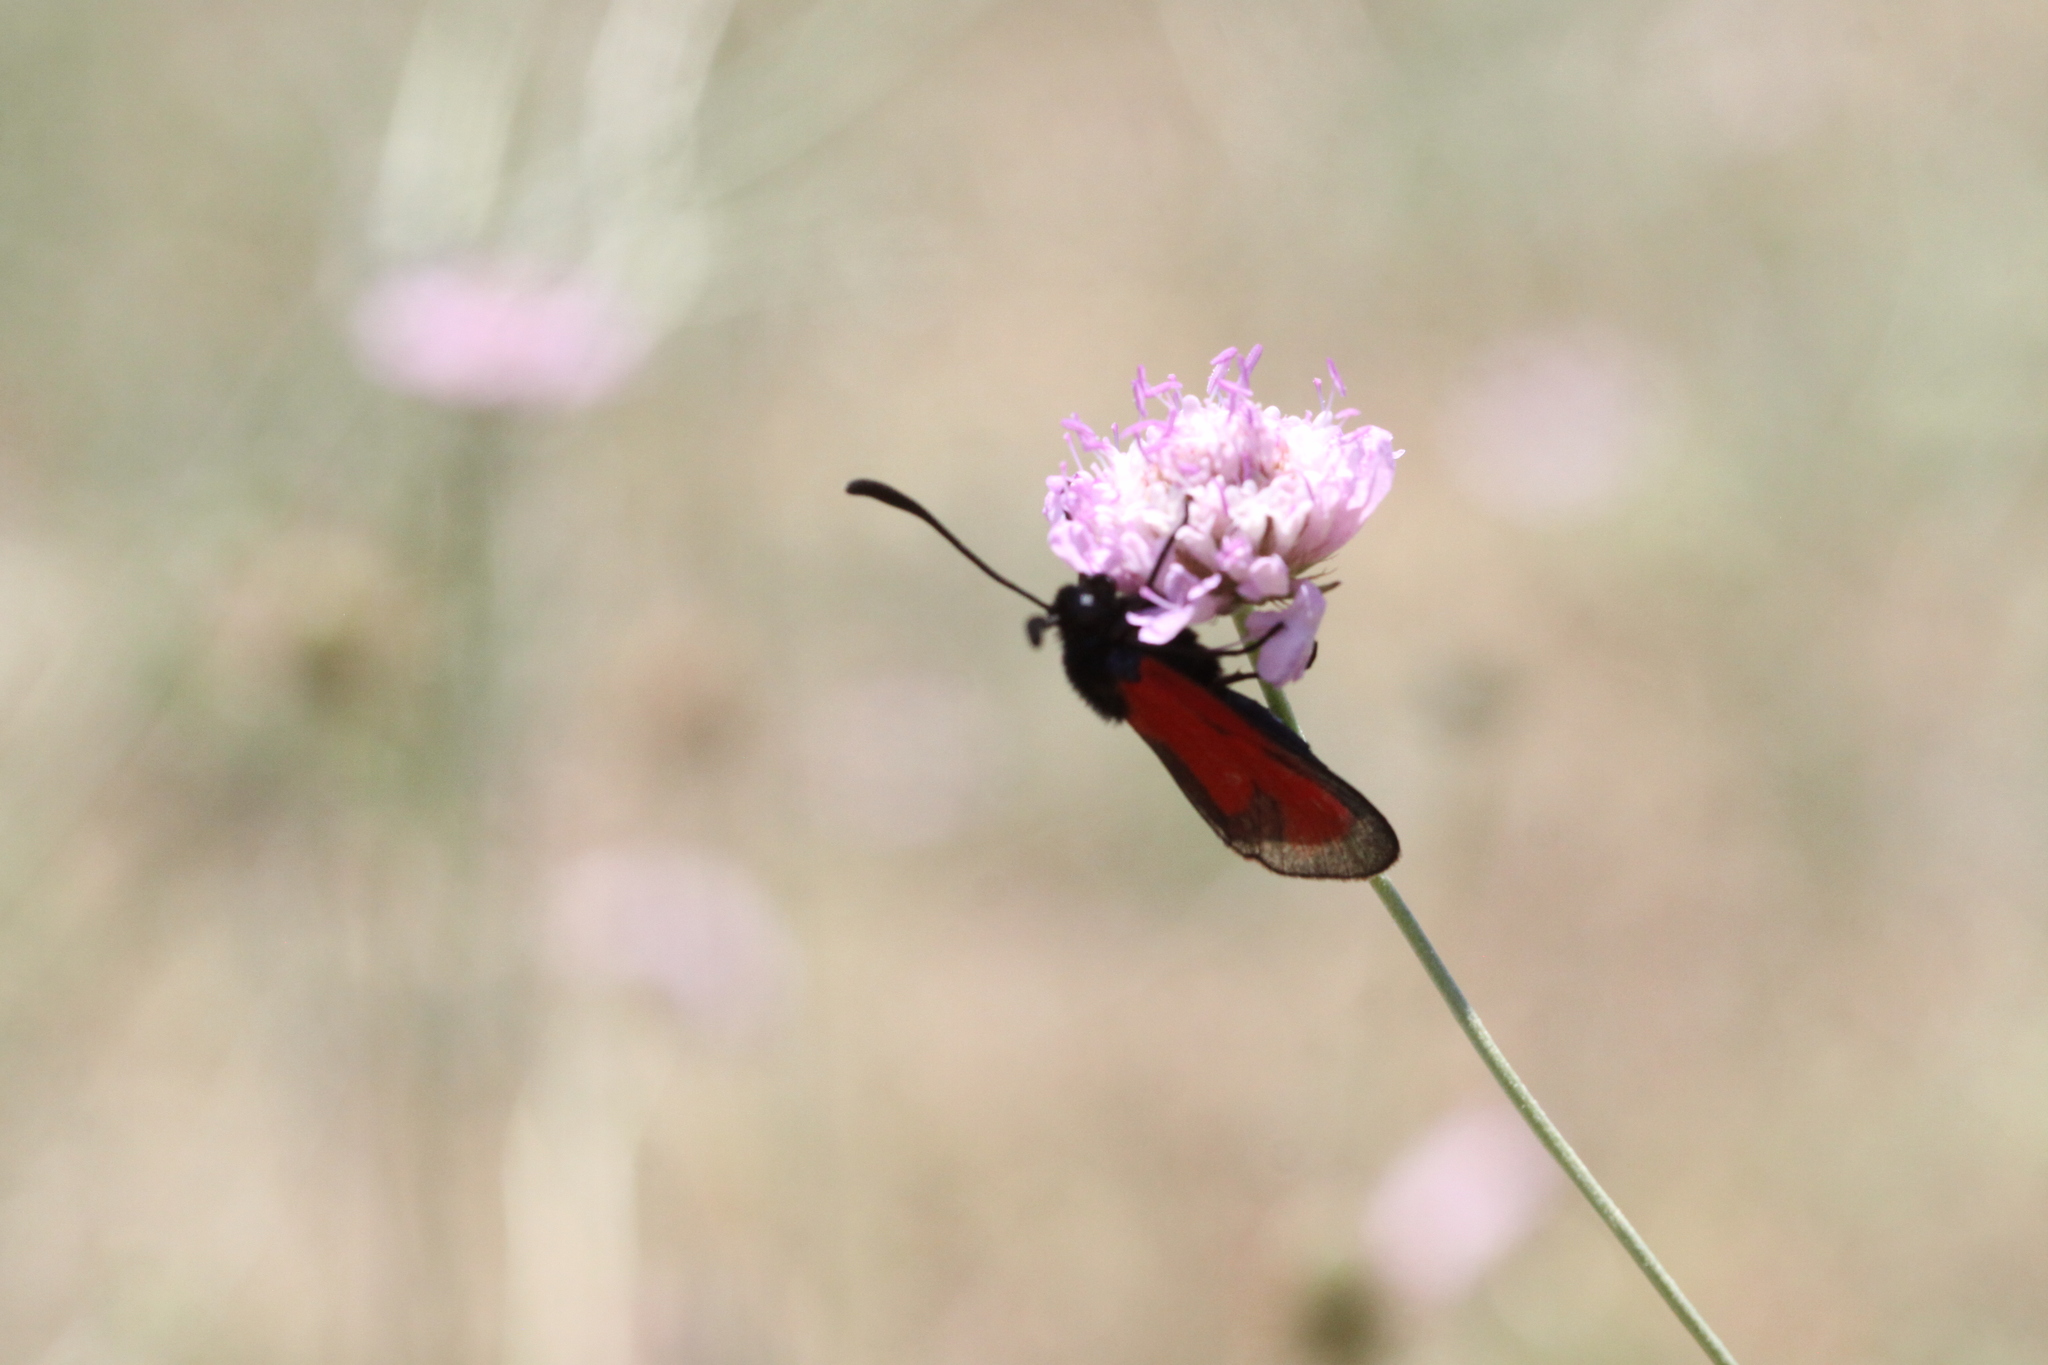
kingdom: Animalia
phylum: Arthropoda
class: Insecta
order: Lepidoptera
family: Zygaenidae
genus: Zygaena
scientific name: Zygaena erythrus
